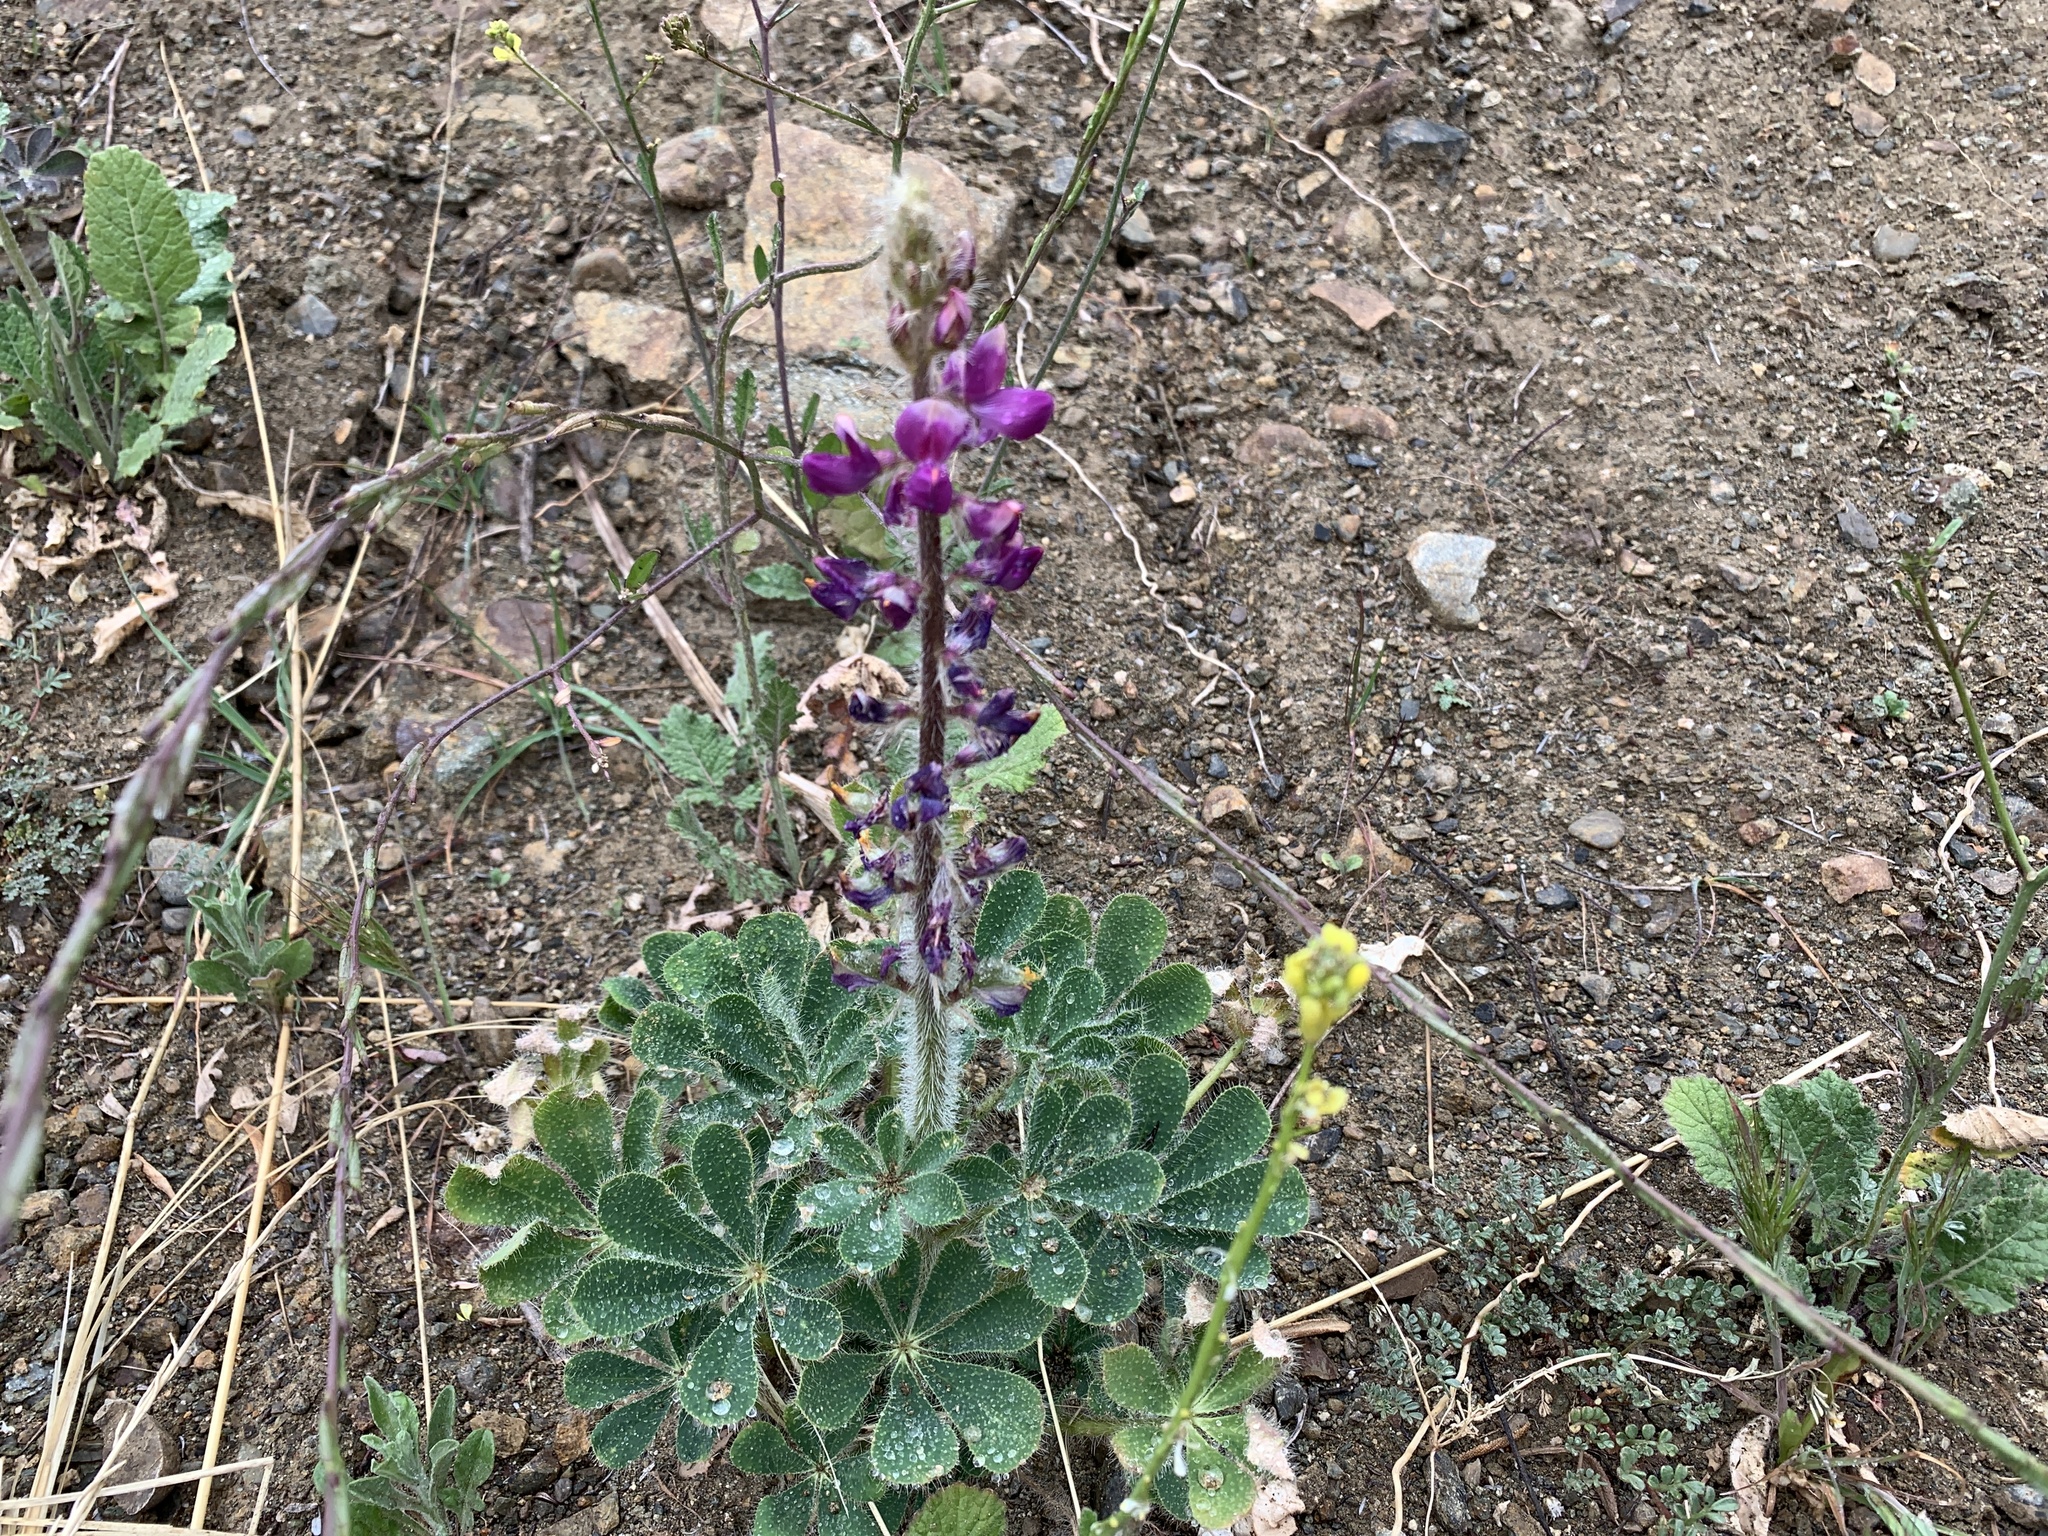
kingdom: Plantae
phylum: Tracheophyta
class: Magnoliopsida
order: Fabales
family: Fabaceae
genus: Lupinus
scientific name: Lupinus hirsutissimus
